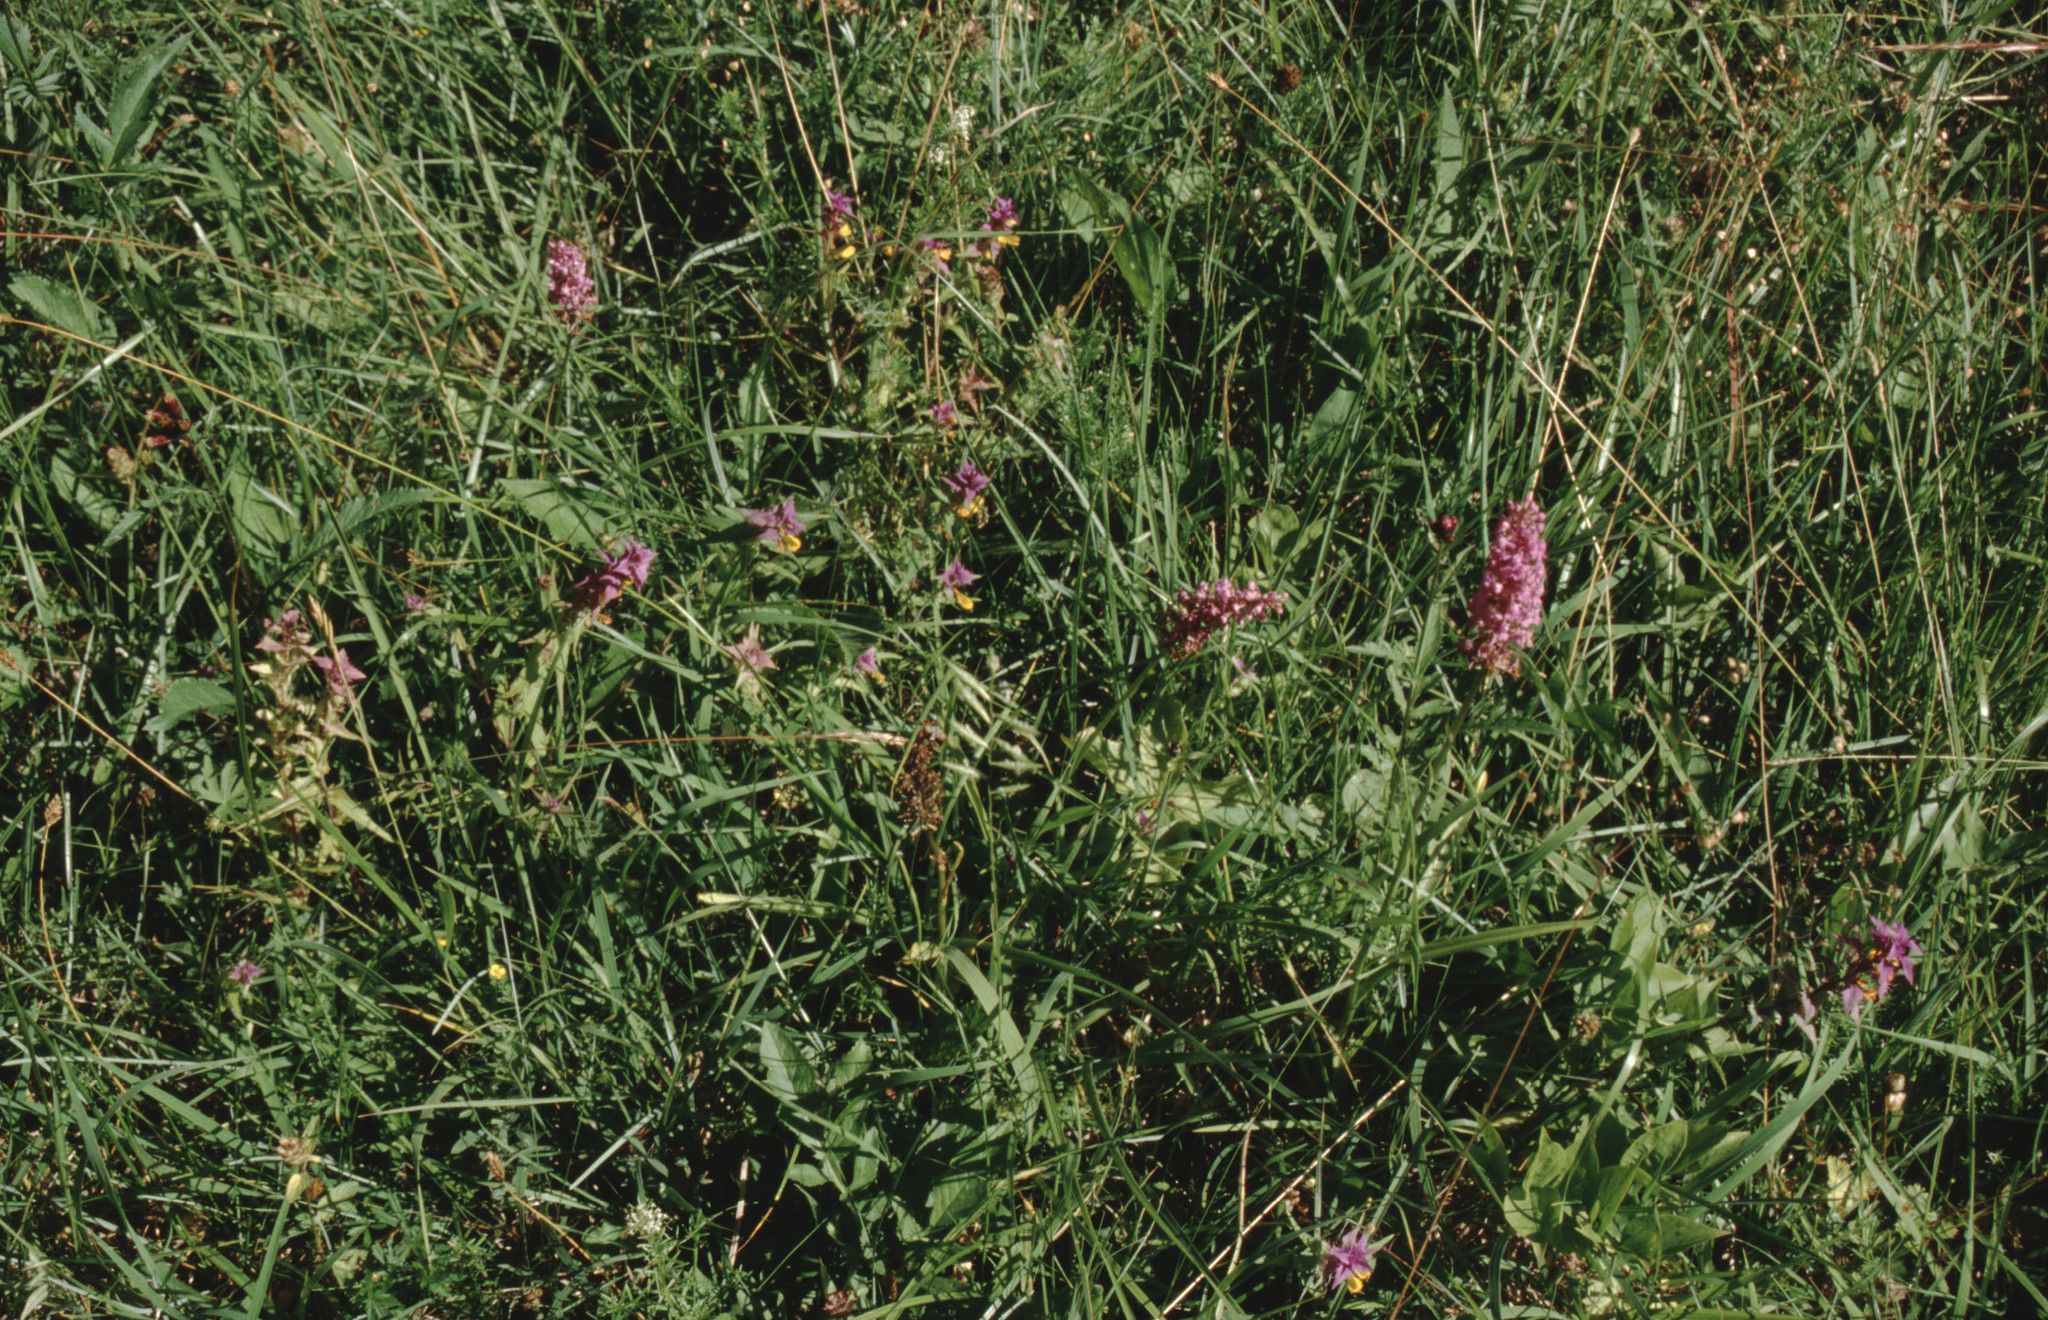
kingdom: Plantae
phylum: Tracheophyta
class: Magnoliopsida
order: Lamiales
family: Orobanchaceae
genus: Melampyrum
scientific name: Melampyrum nemorosum
